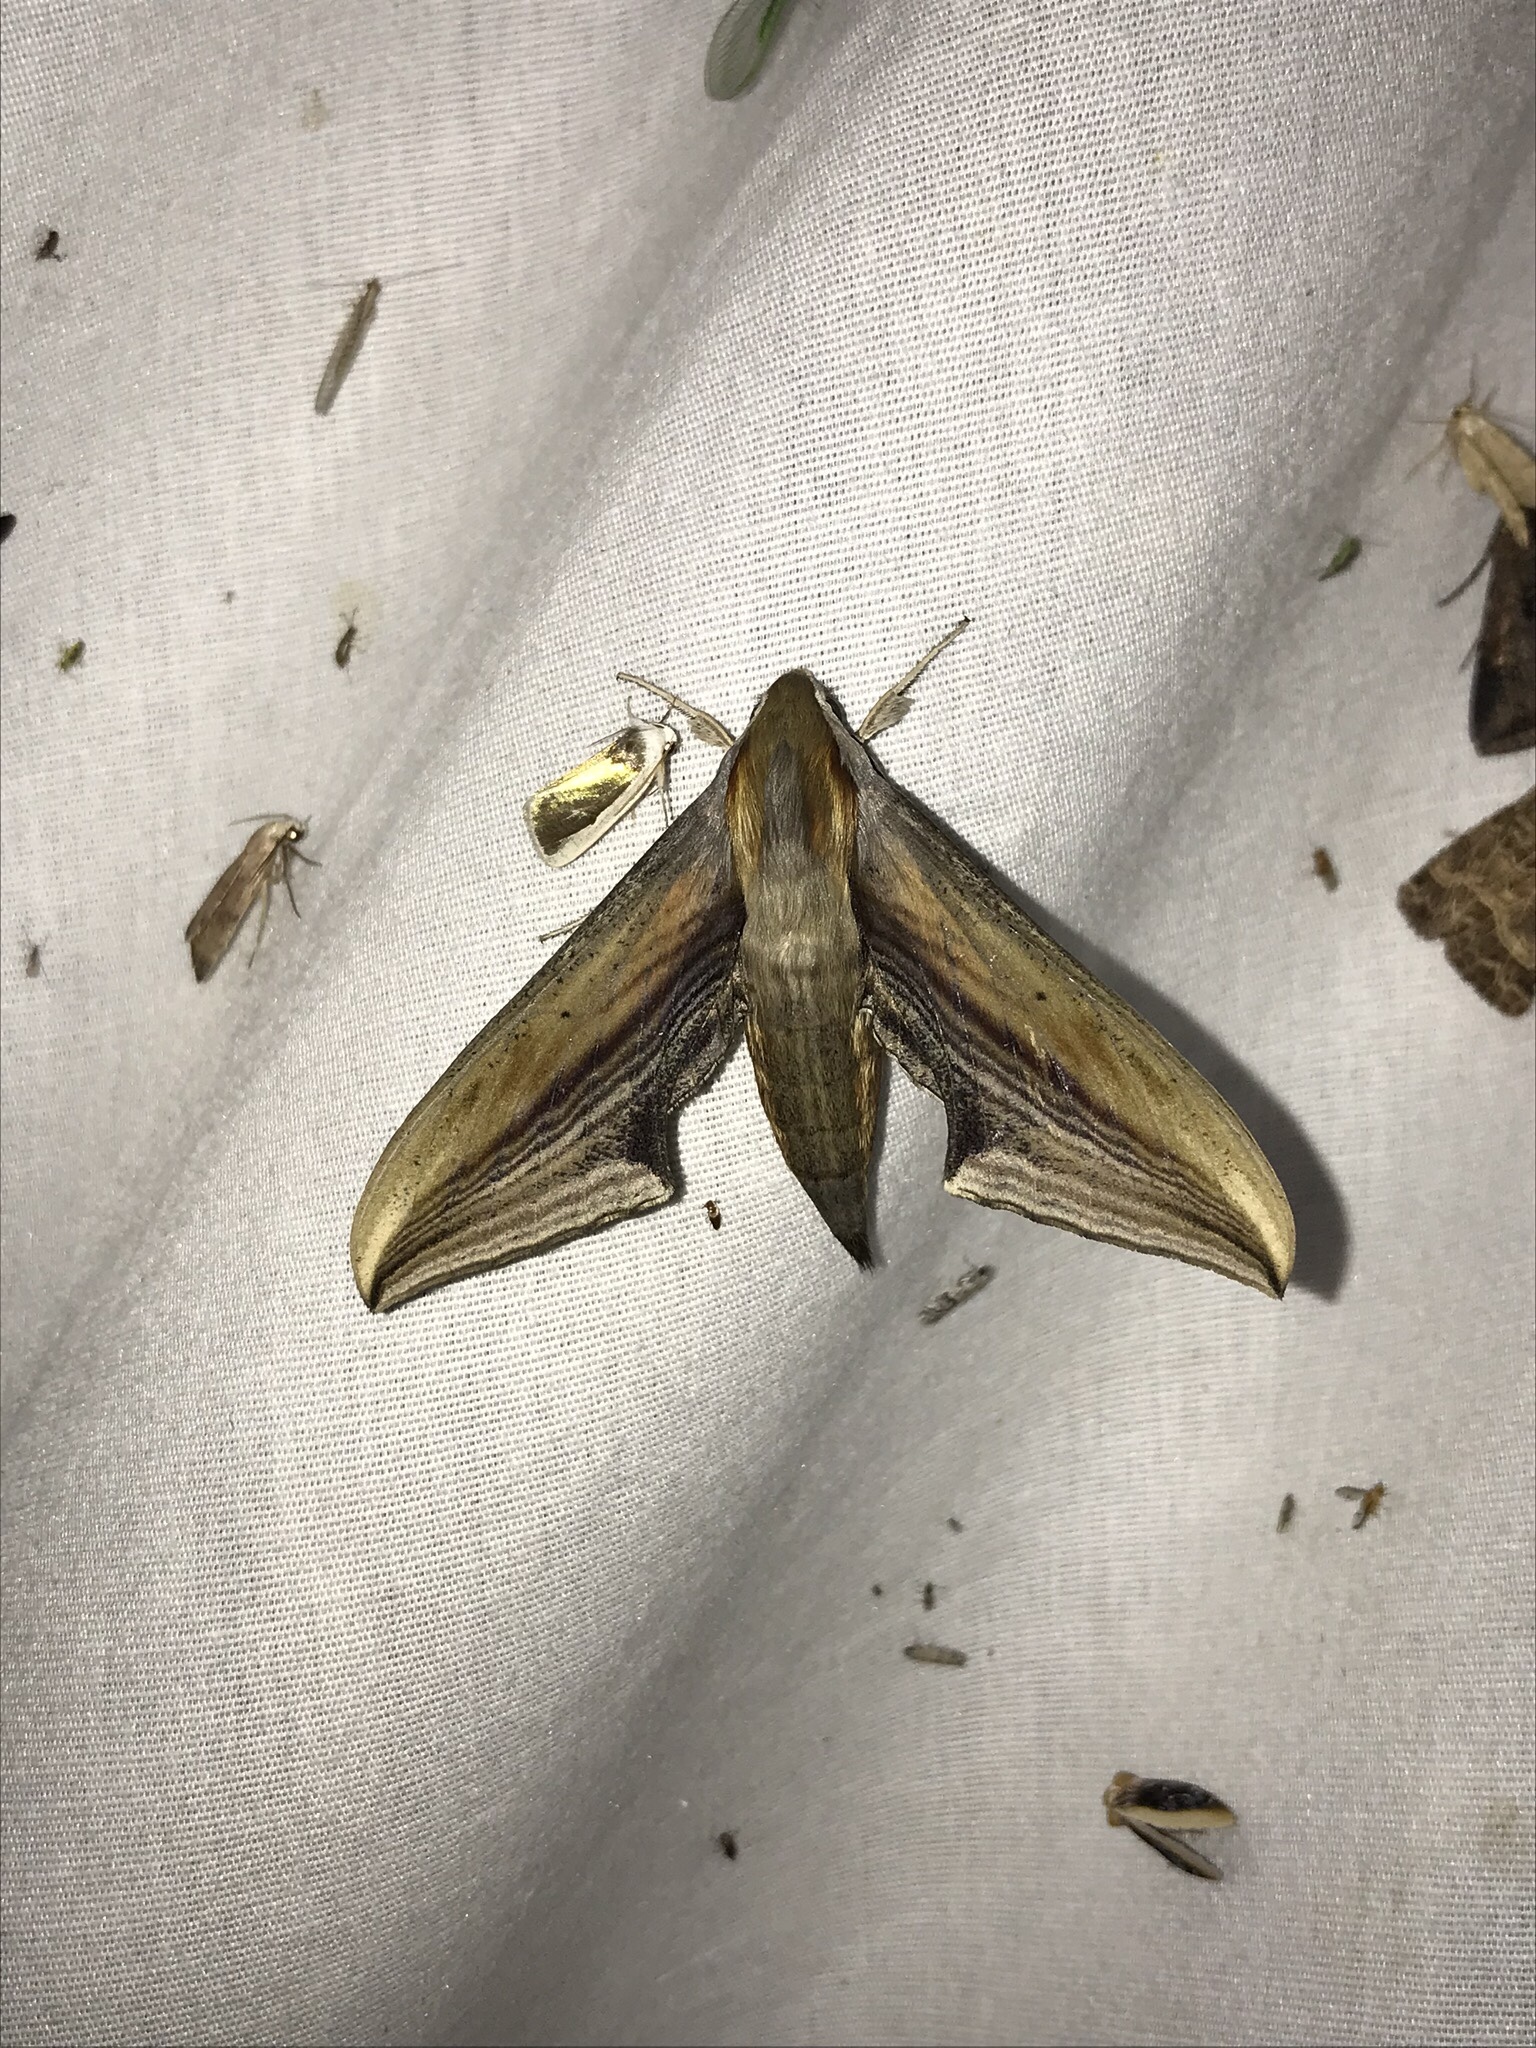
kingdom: Animalia
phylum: Arthropoda
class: Insecta
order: Lepidoptera
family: Sphingidae
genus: Xylophanes
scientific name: Xylophanes falco
